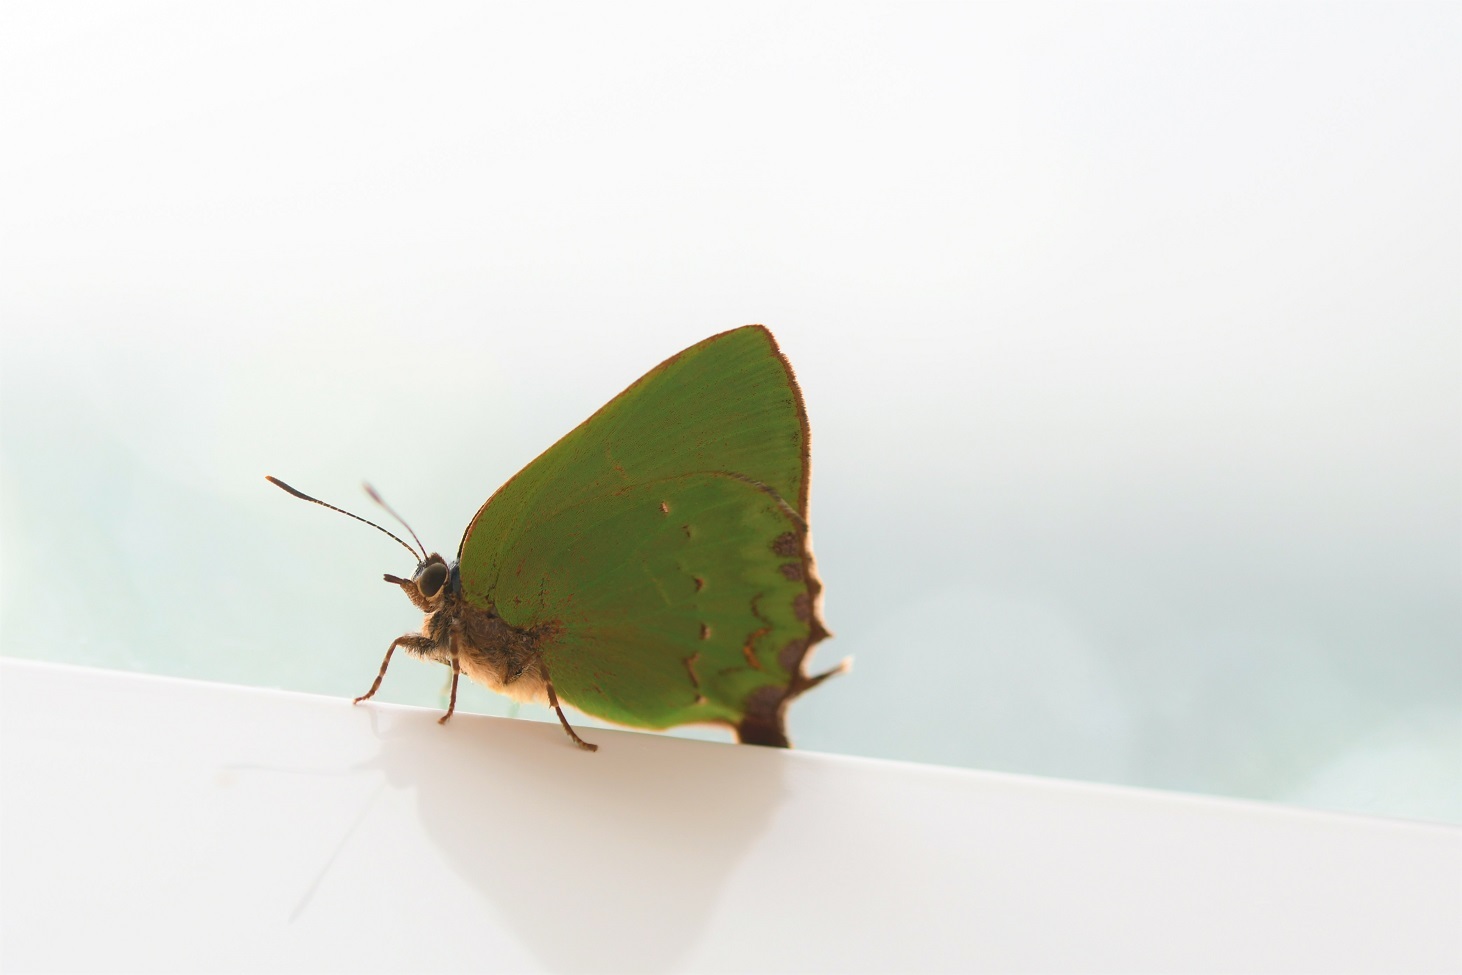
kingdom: Animalia
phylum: Arthropoda
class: Insecta
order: Lepidoptera
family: Lycaenidae
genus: Cyanophrys
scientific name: Cyanophrys longula
